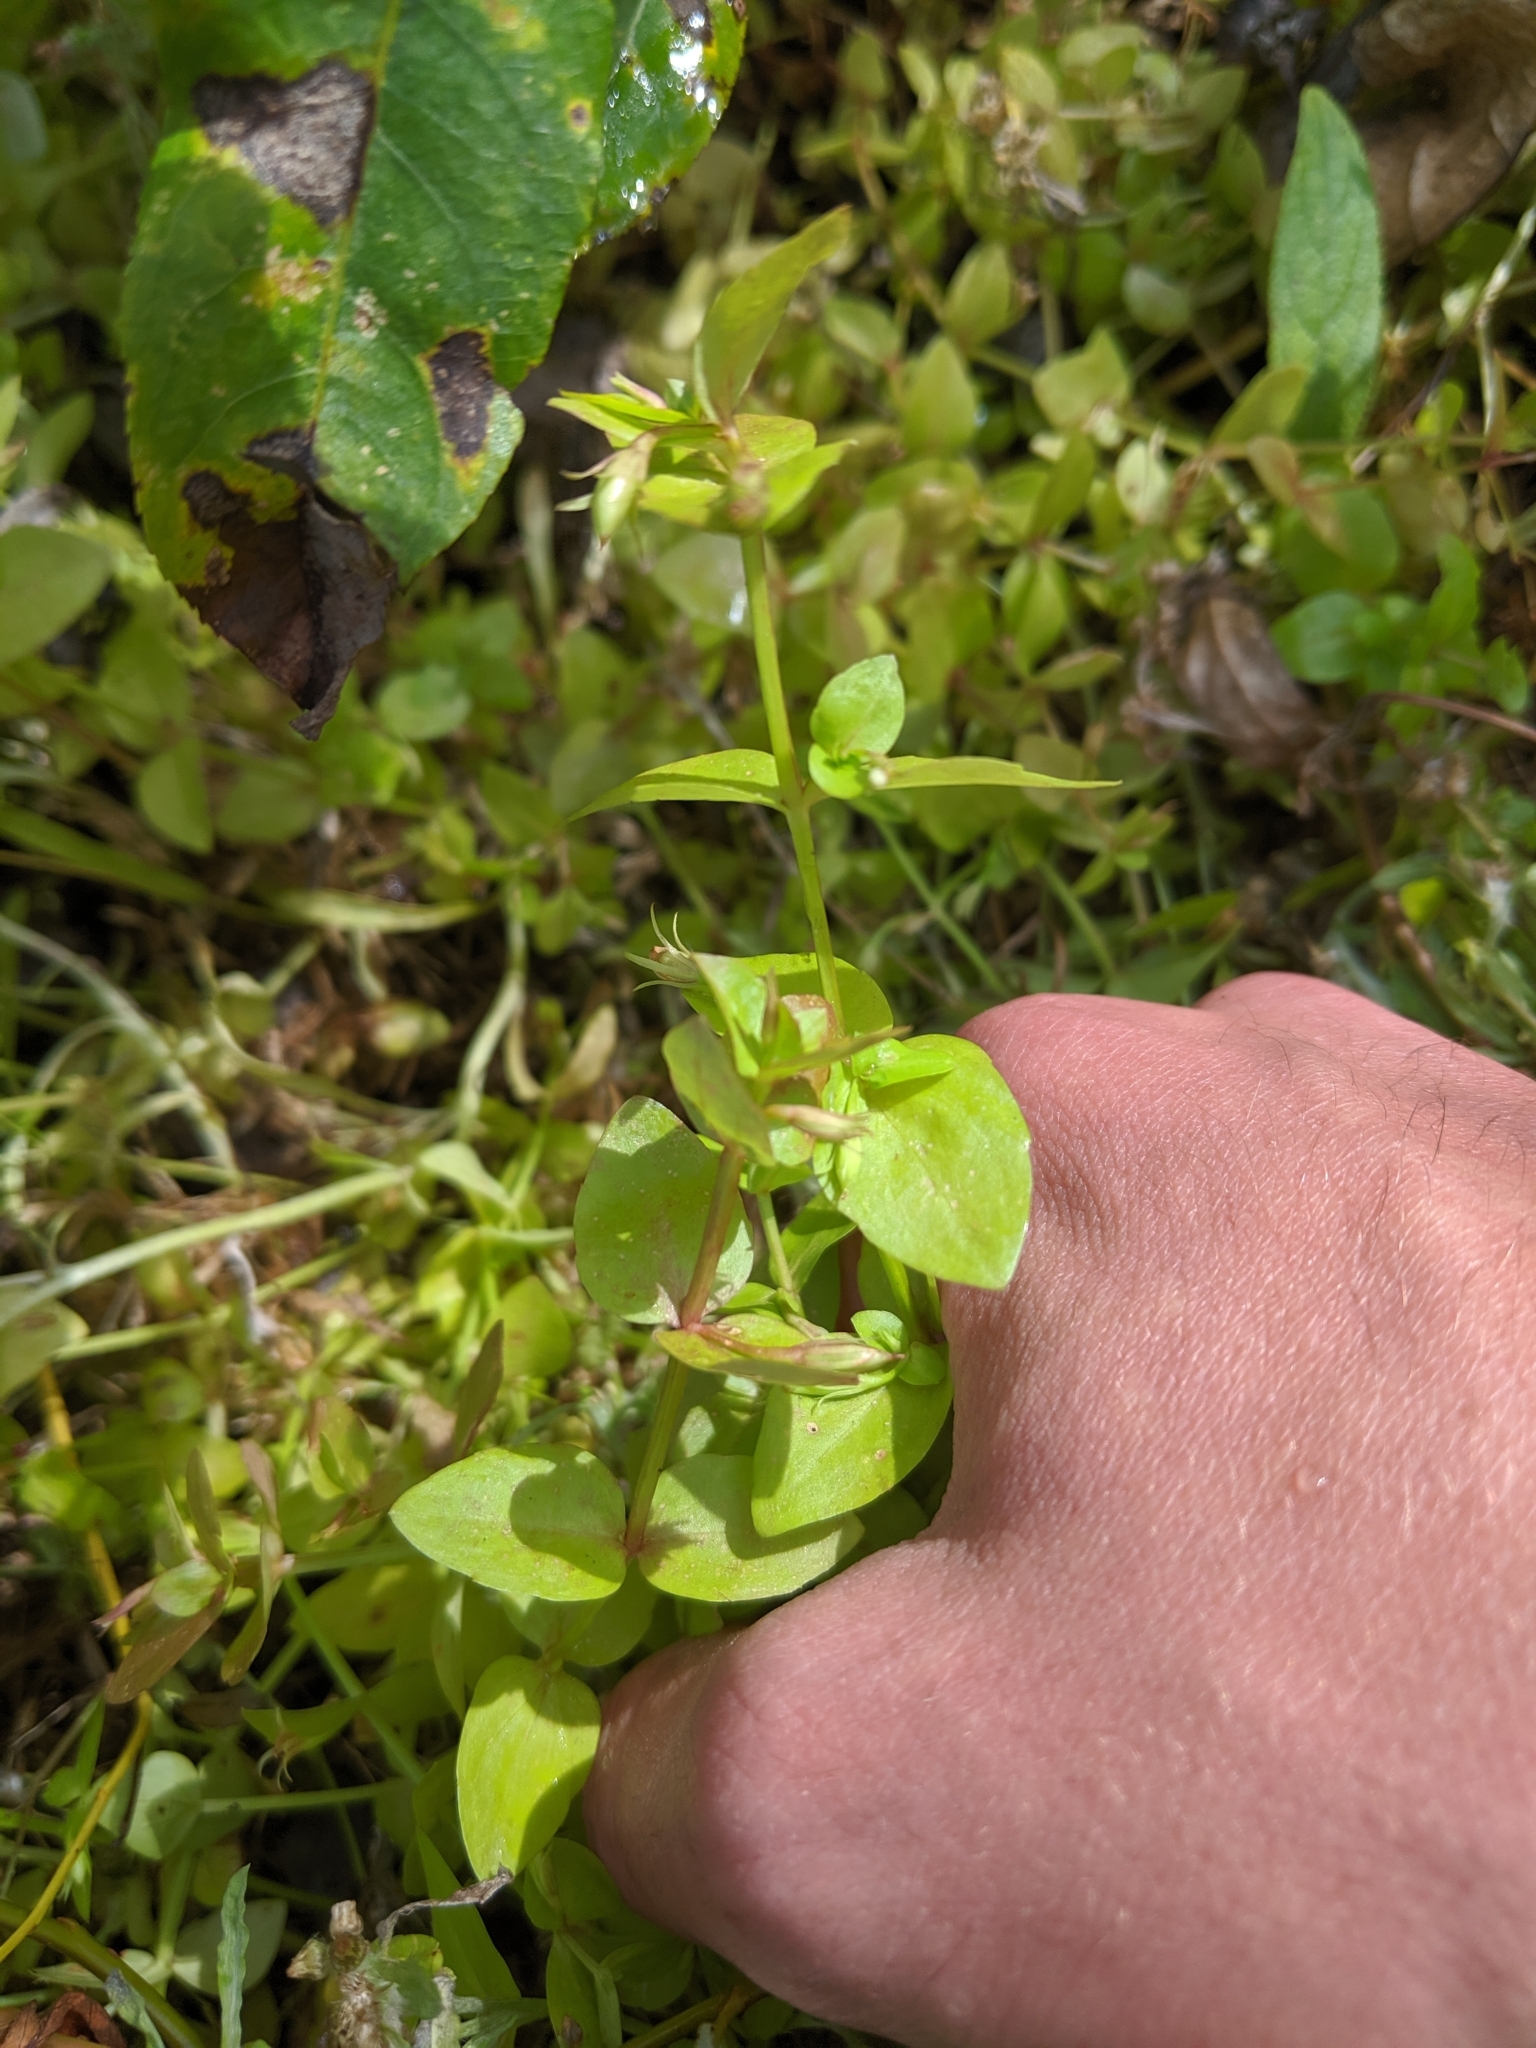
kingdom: Plantae
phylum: Tracheophyta
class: Magnoliopsida
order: Lamiales
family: Linderniaceae
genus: Lindernia
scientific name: Lindernia dubia
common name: Annual false pimpernel
